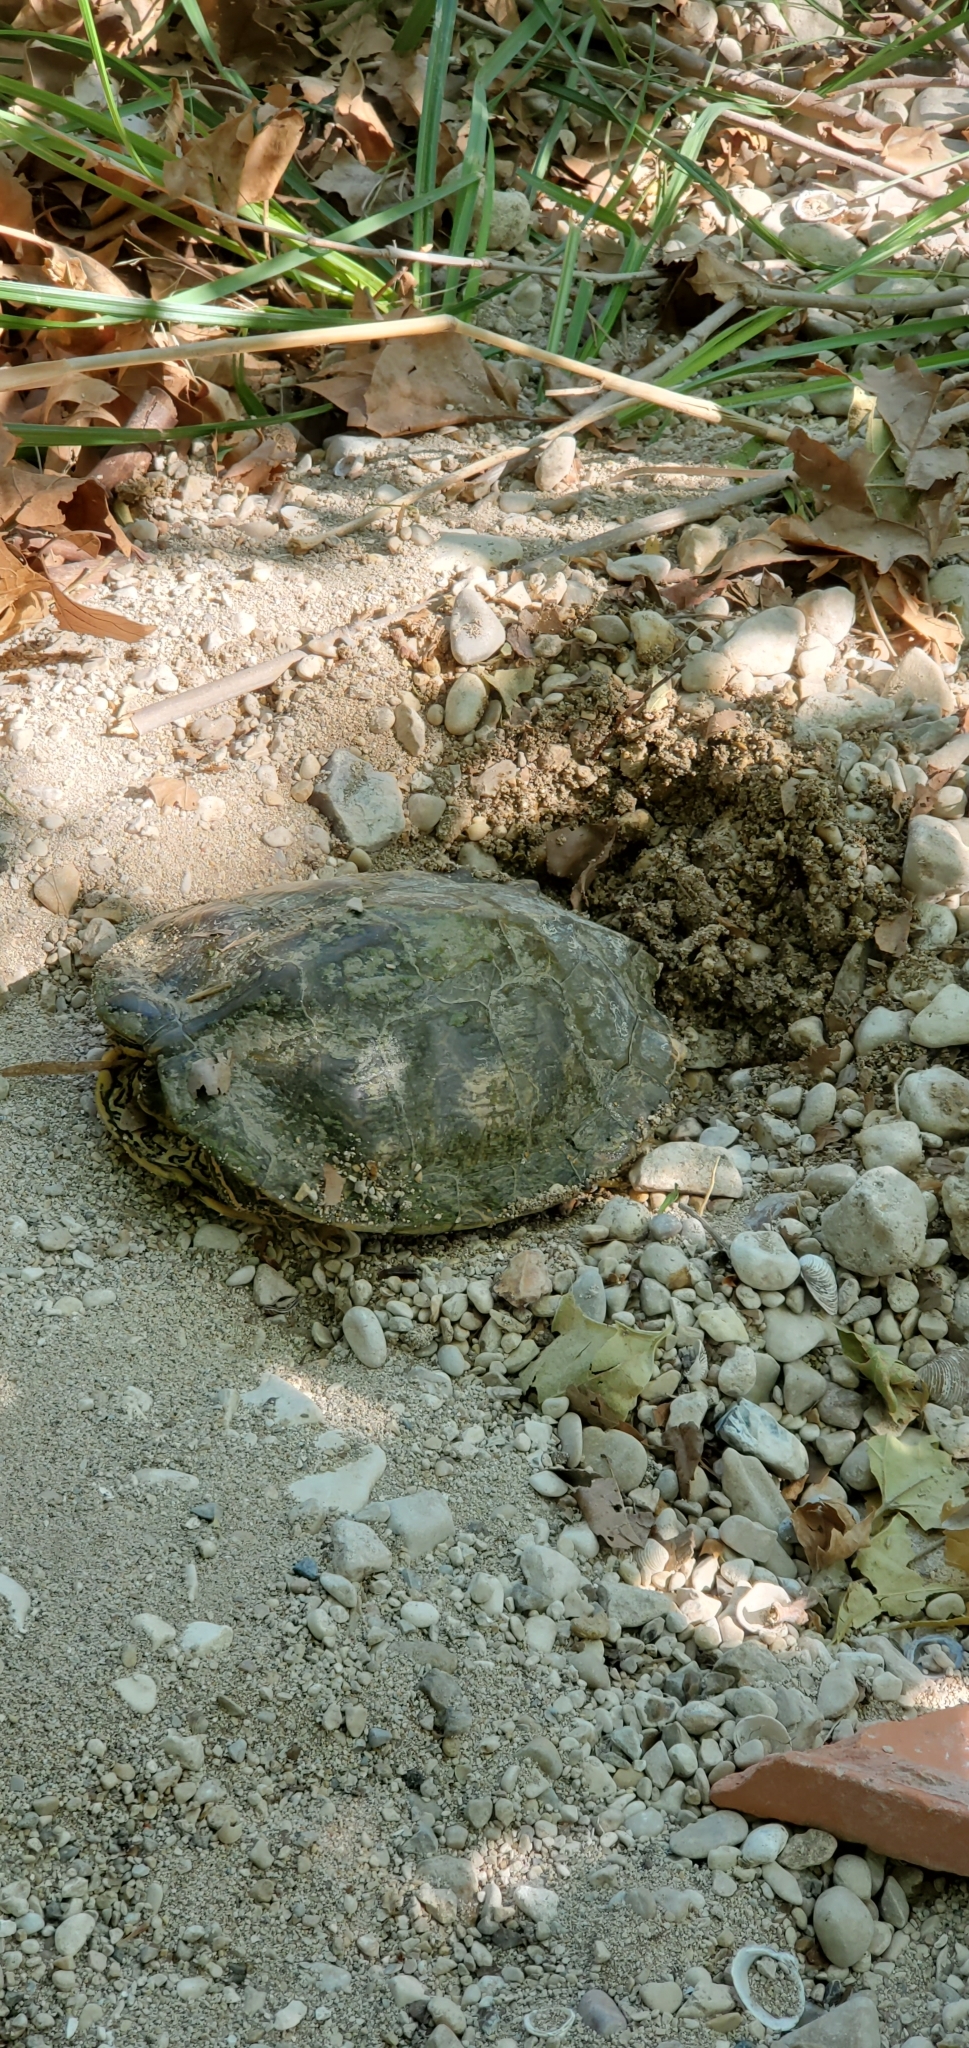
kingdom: Animalia
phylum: Chordata
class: Testudines
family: Emydidae
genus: Graptemys
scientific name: Graptemys versa
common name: Texas map turtle
